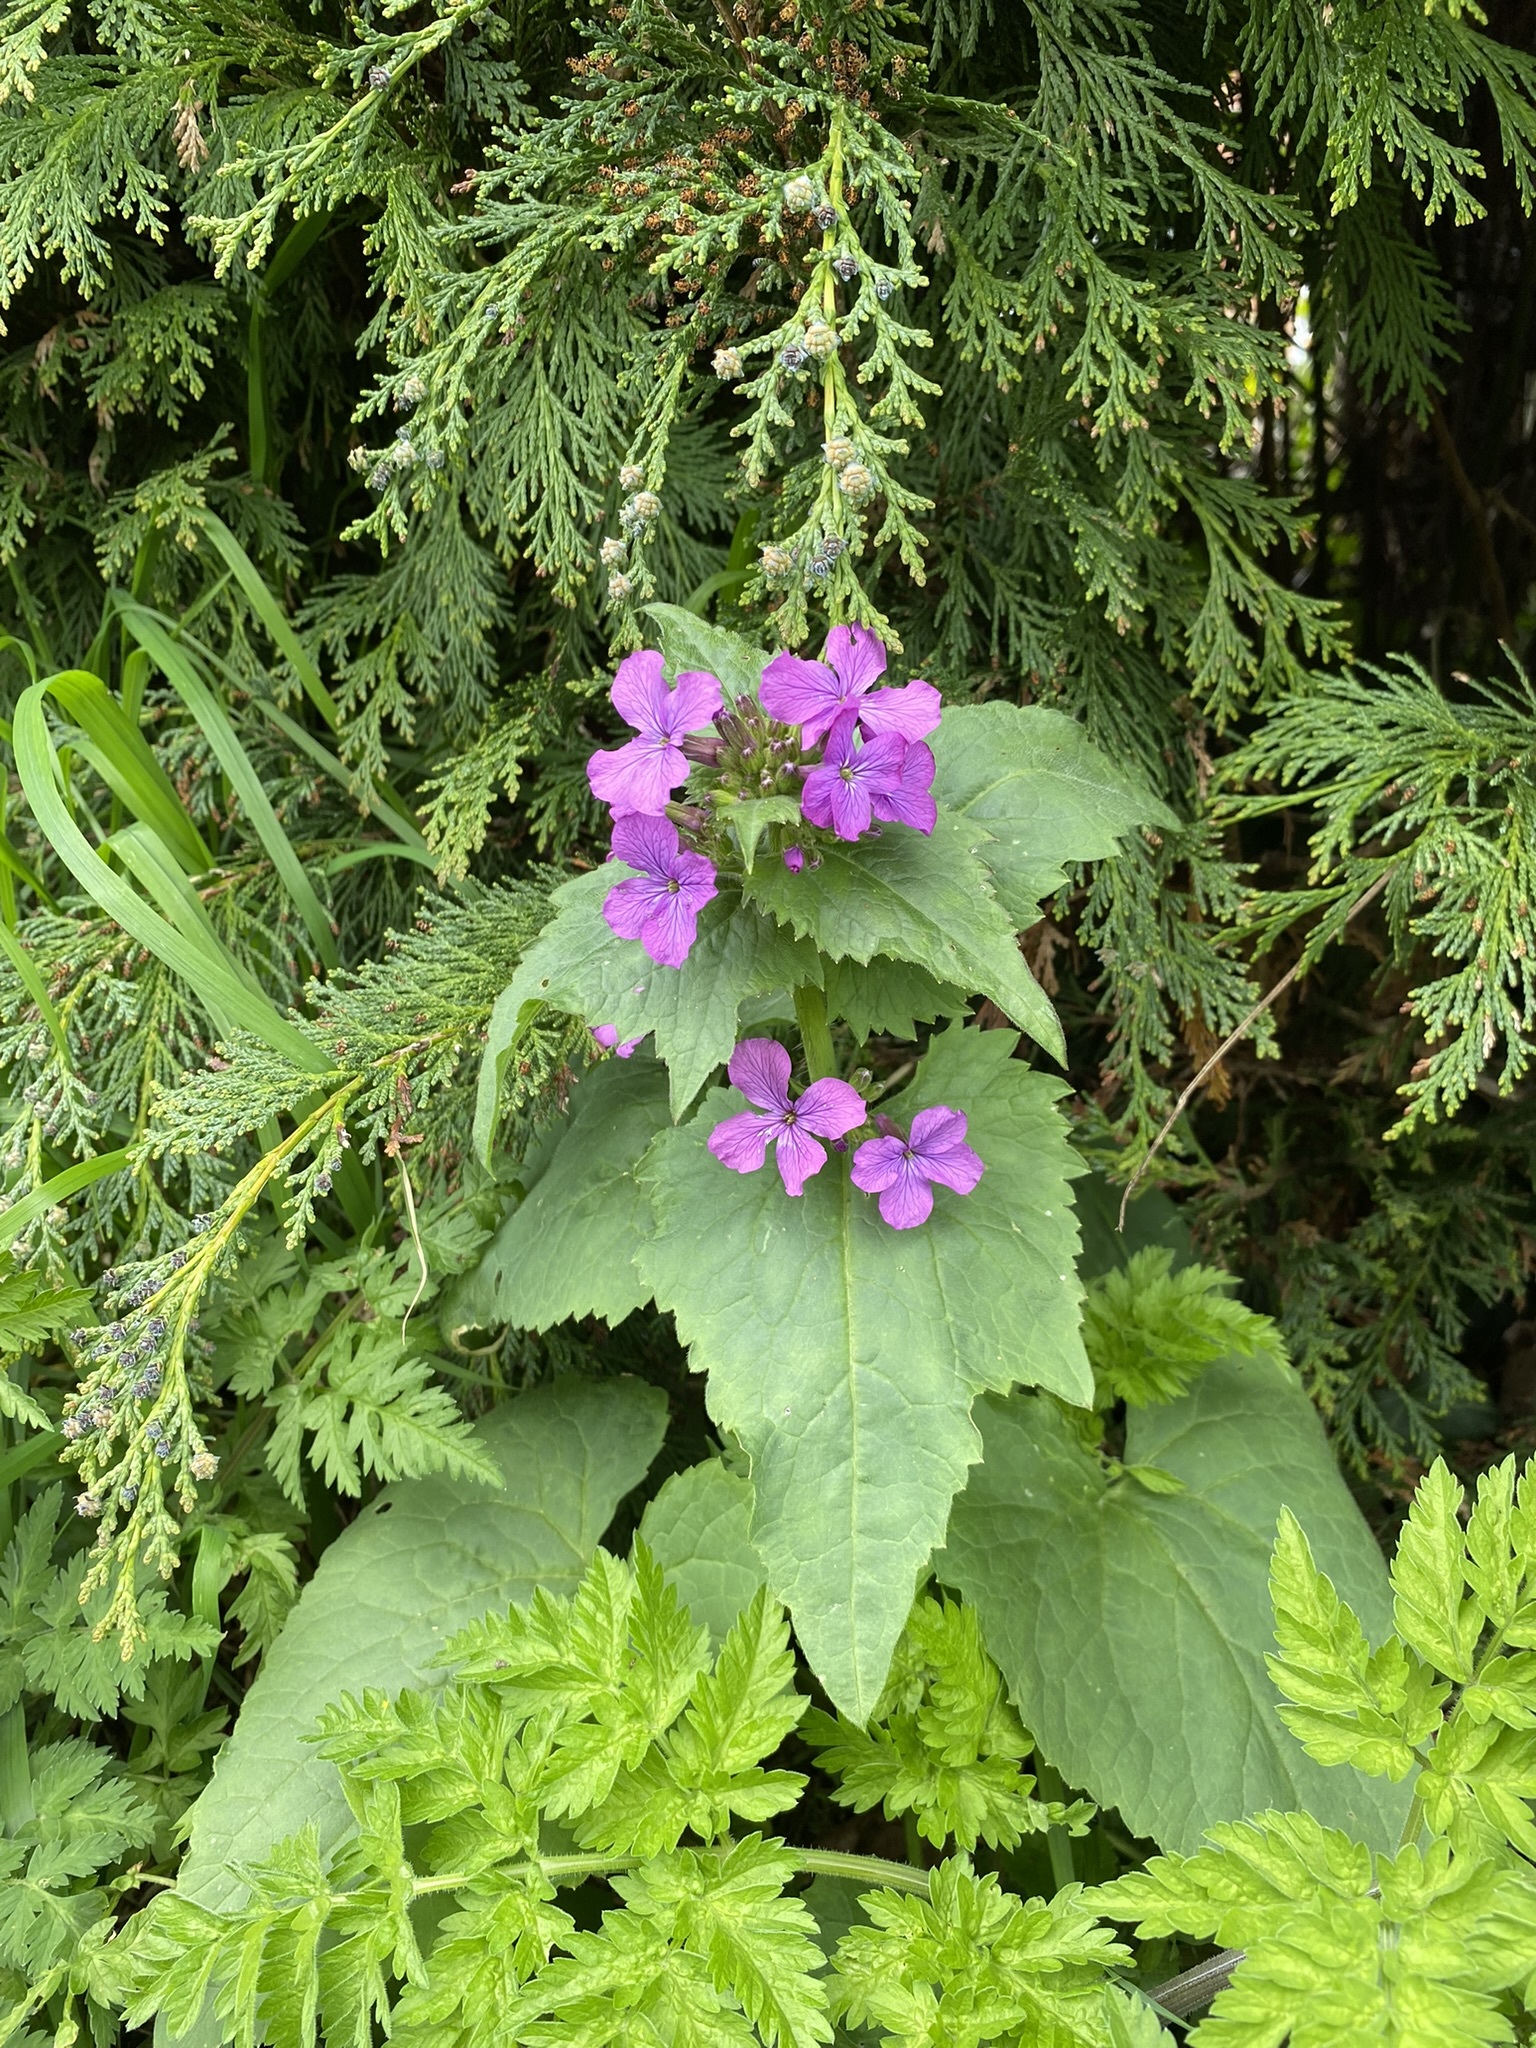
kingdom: Plantae
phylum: Tracheophyta
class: Magnoliopsida
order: Brassicales
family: Brassicaceae
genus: Lunaria
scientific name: Lunaria annua
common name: Honesty
